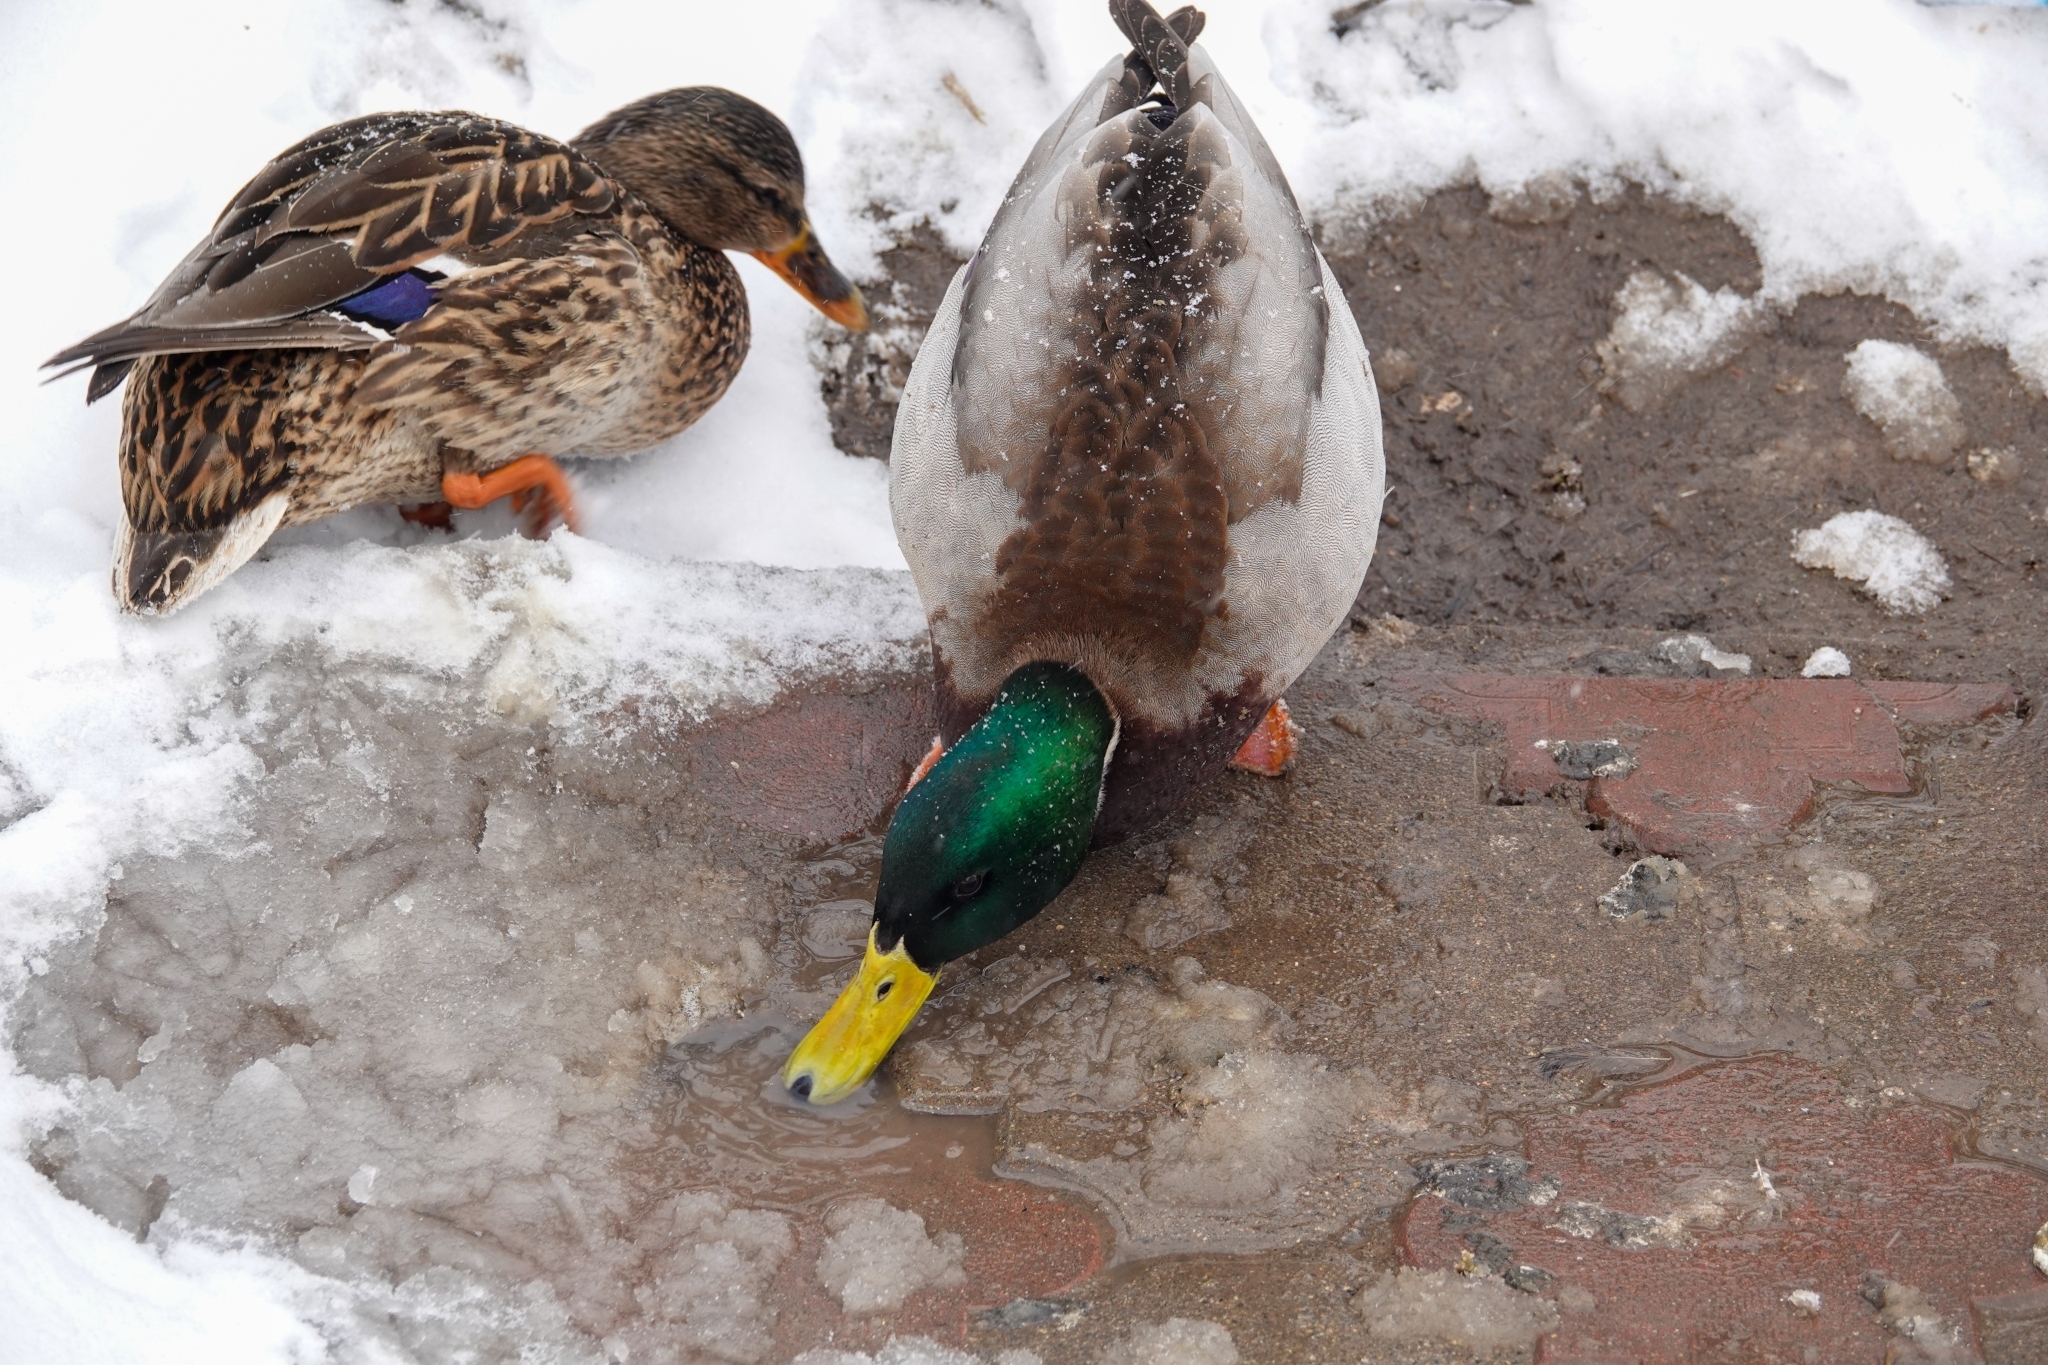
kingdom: Animalia
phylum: Chordata
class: Aves
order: Anseriformes
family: Anatidae
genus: Anas
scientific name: Anas platyrhynchos
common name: Mallard
